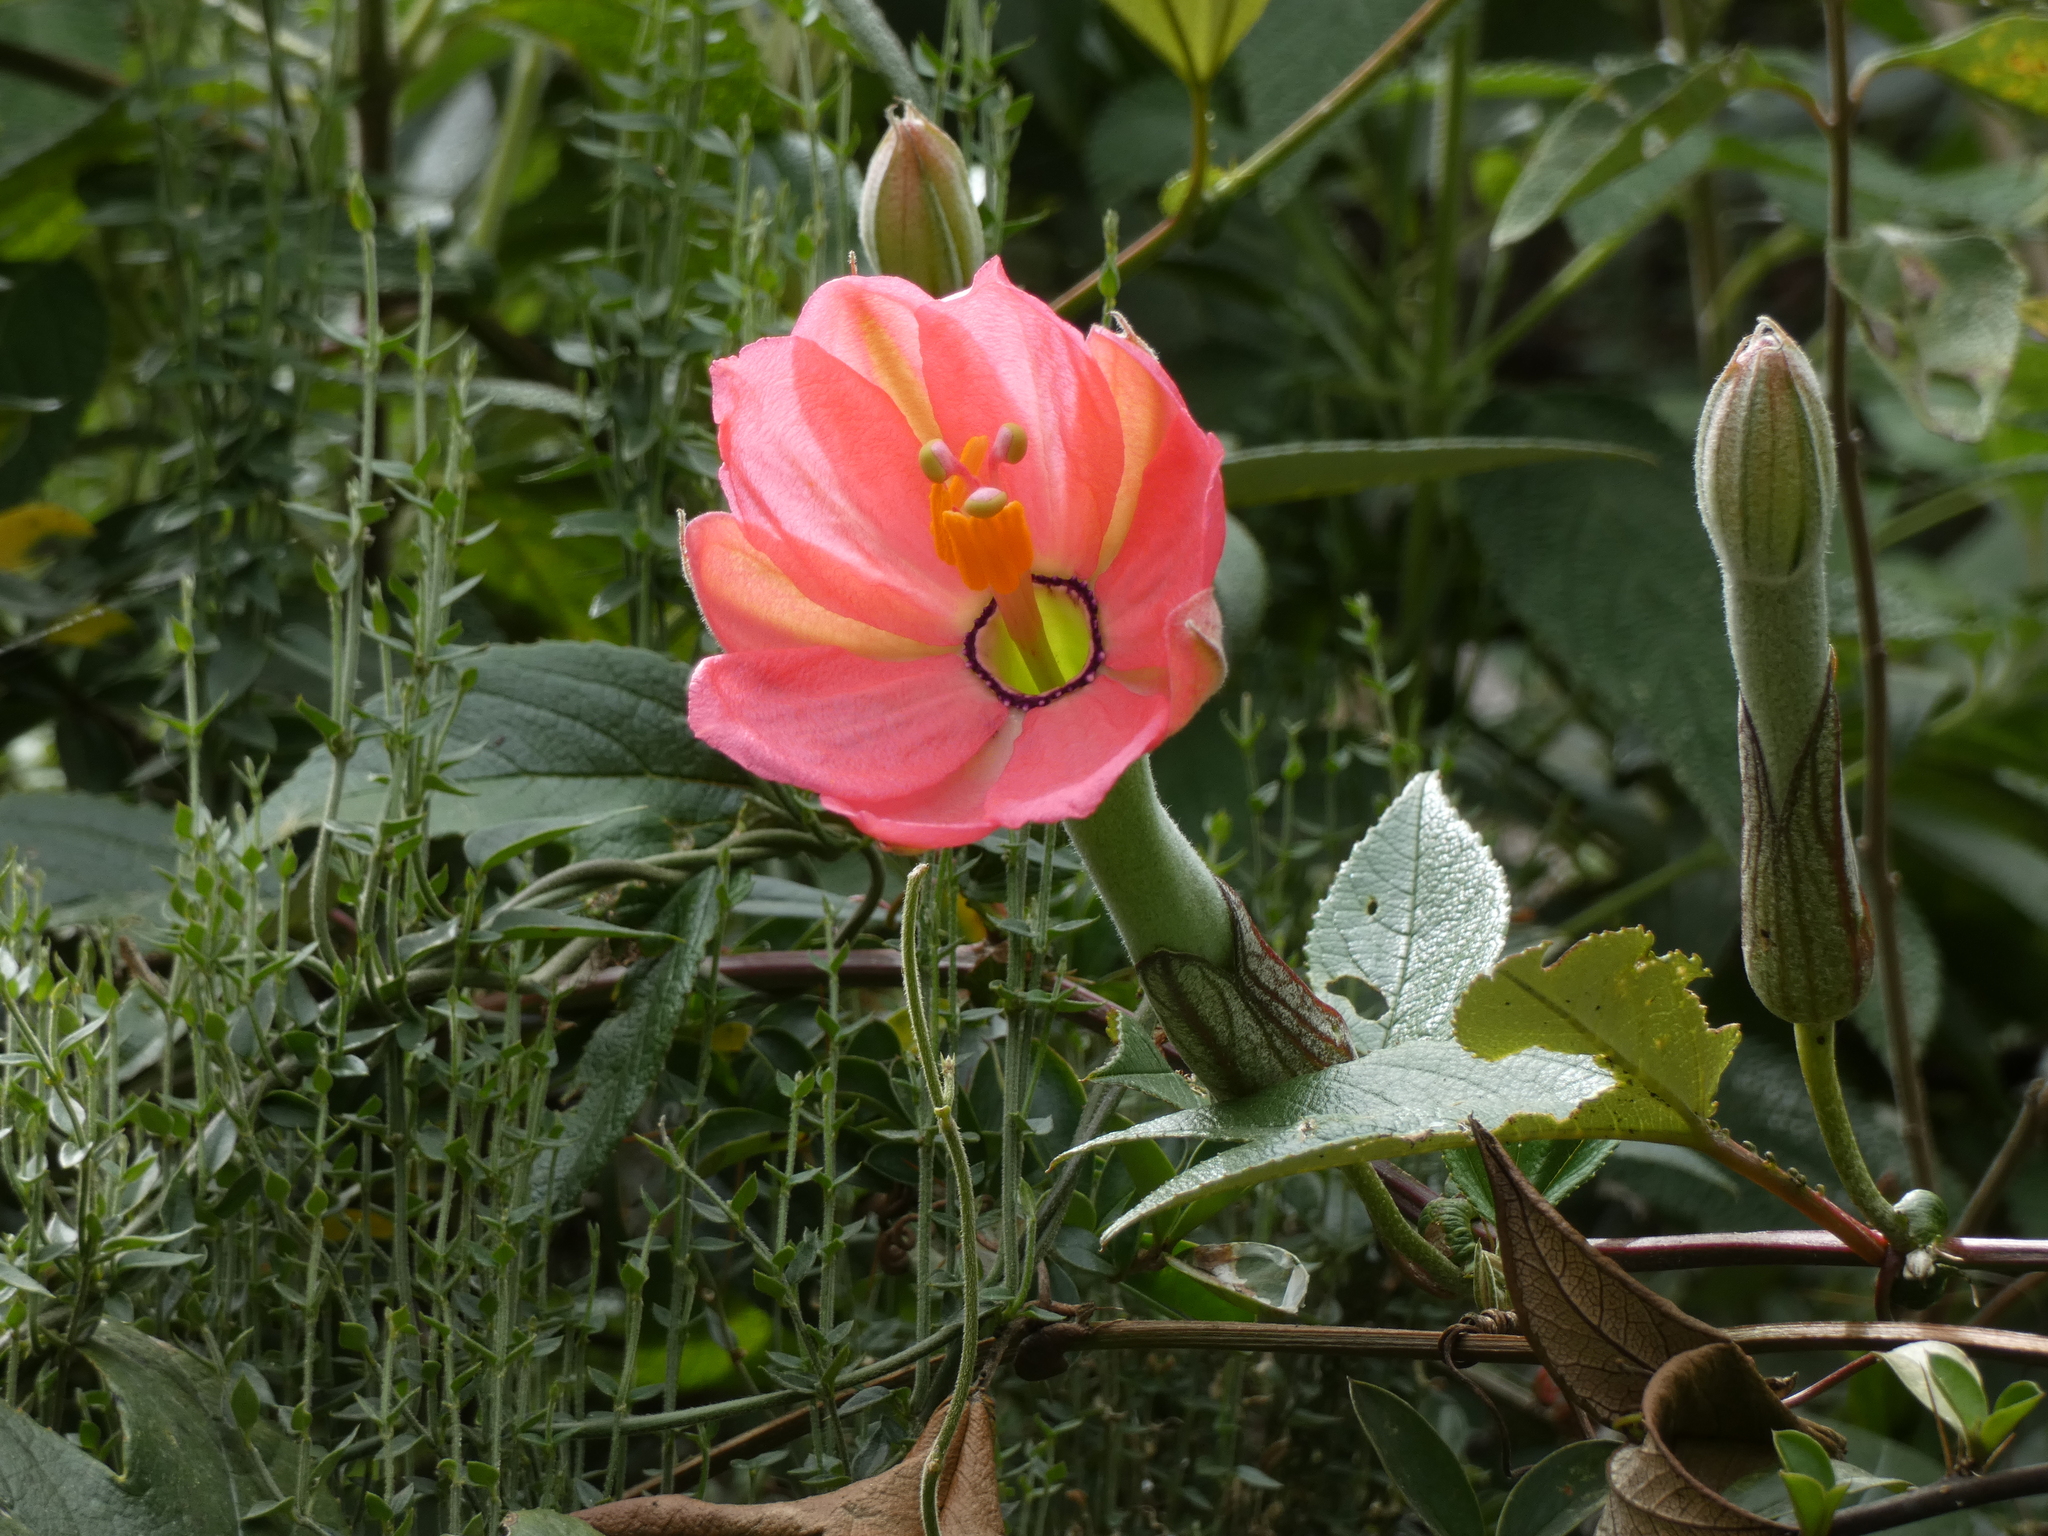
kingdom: Plantae
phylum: Tracheophyta
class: Magnoliopsida
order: Malpighiales
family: Passifloraceae
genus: Passiflora
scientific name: Passiflora mixta
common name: Passion flower
